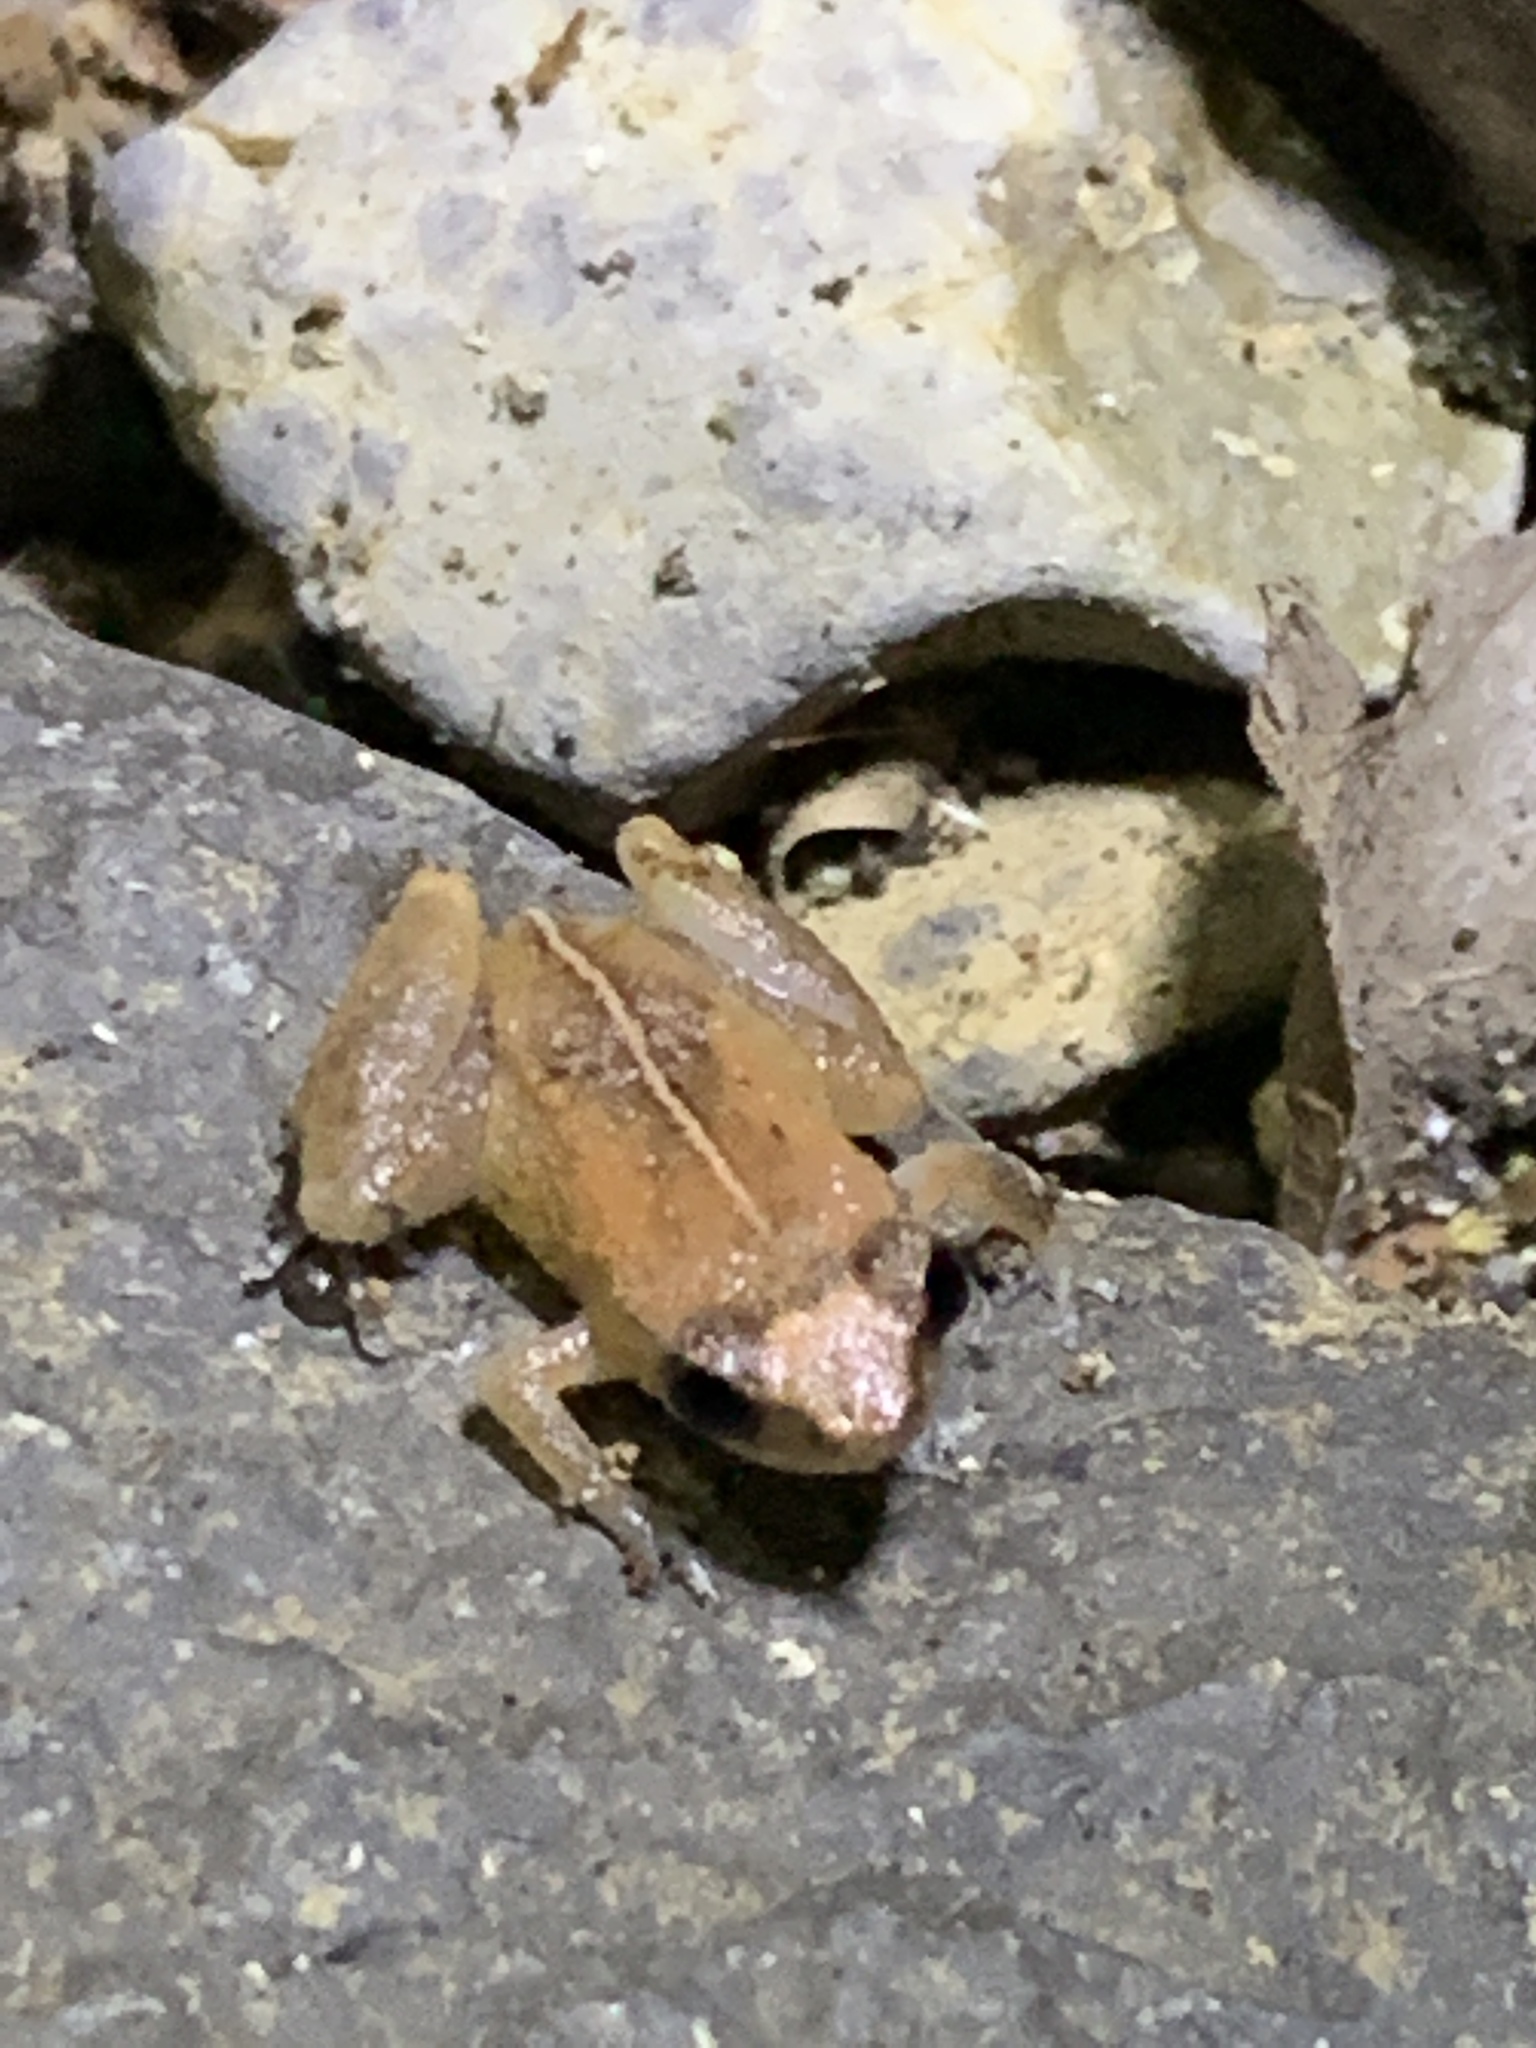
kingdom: Animalia
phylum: Chordata
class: Amphibia
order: Anura
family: Eleutherodactylidae
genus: Diasporus
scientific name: Diasporus quidditus
